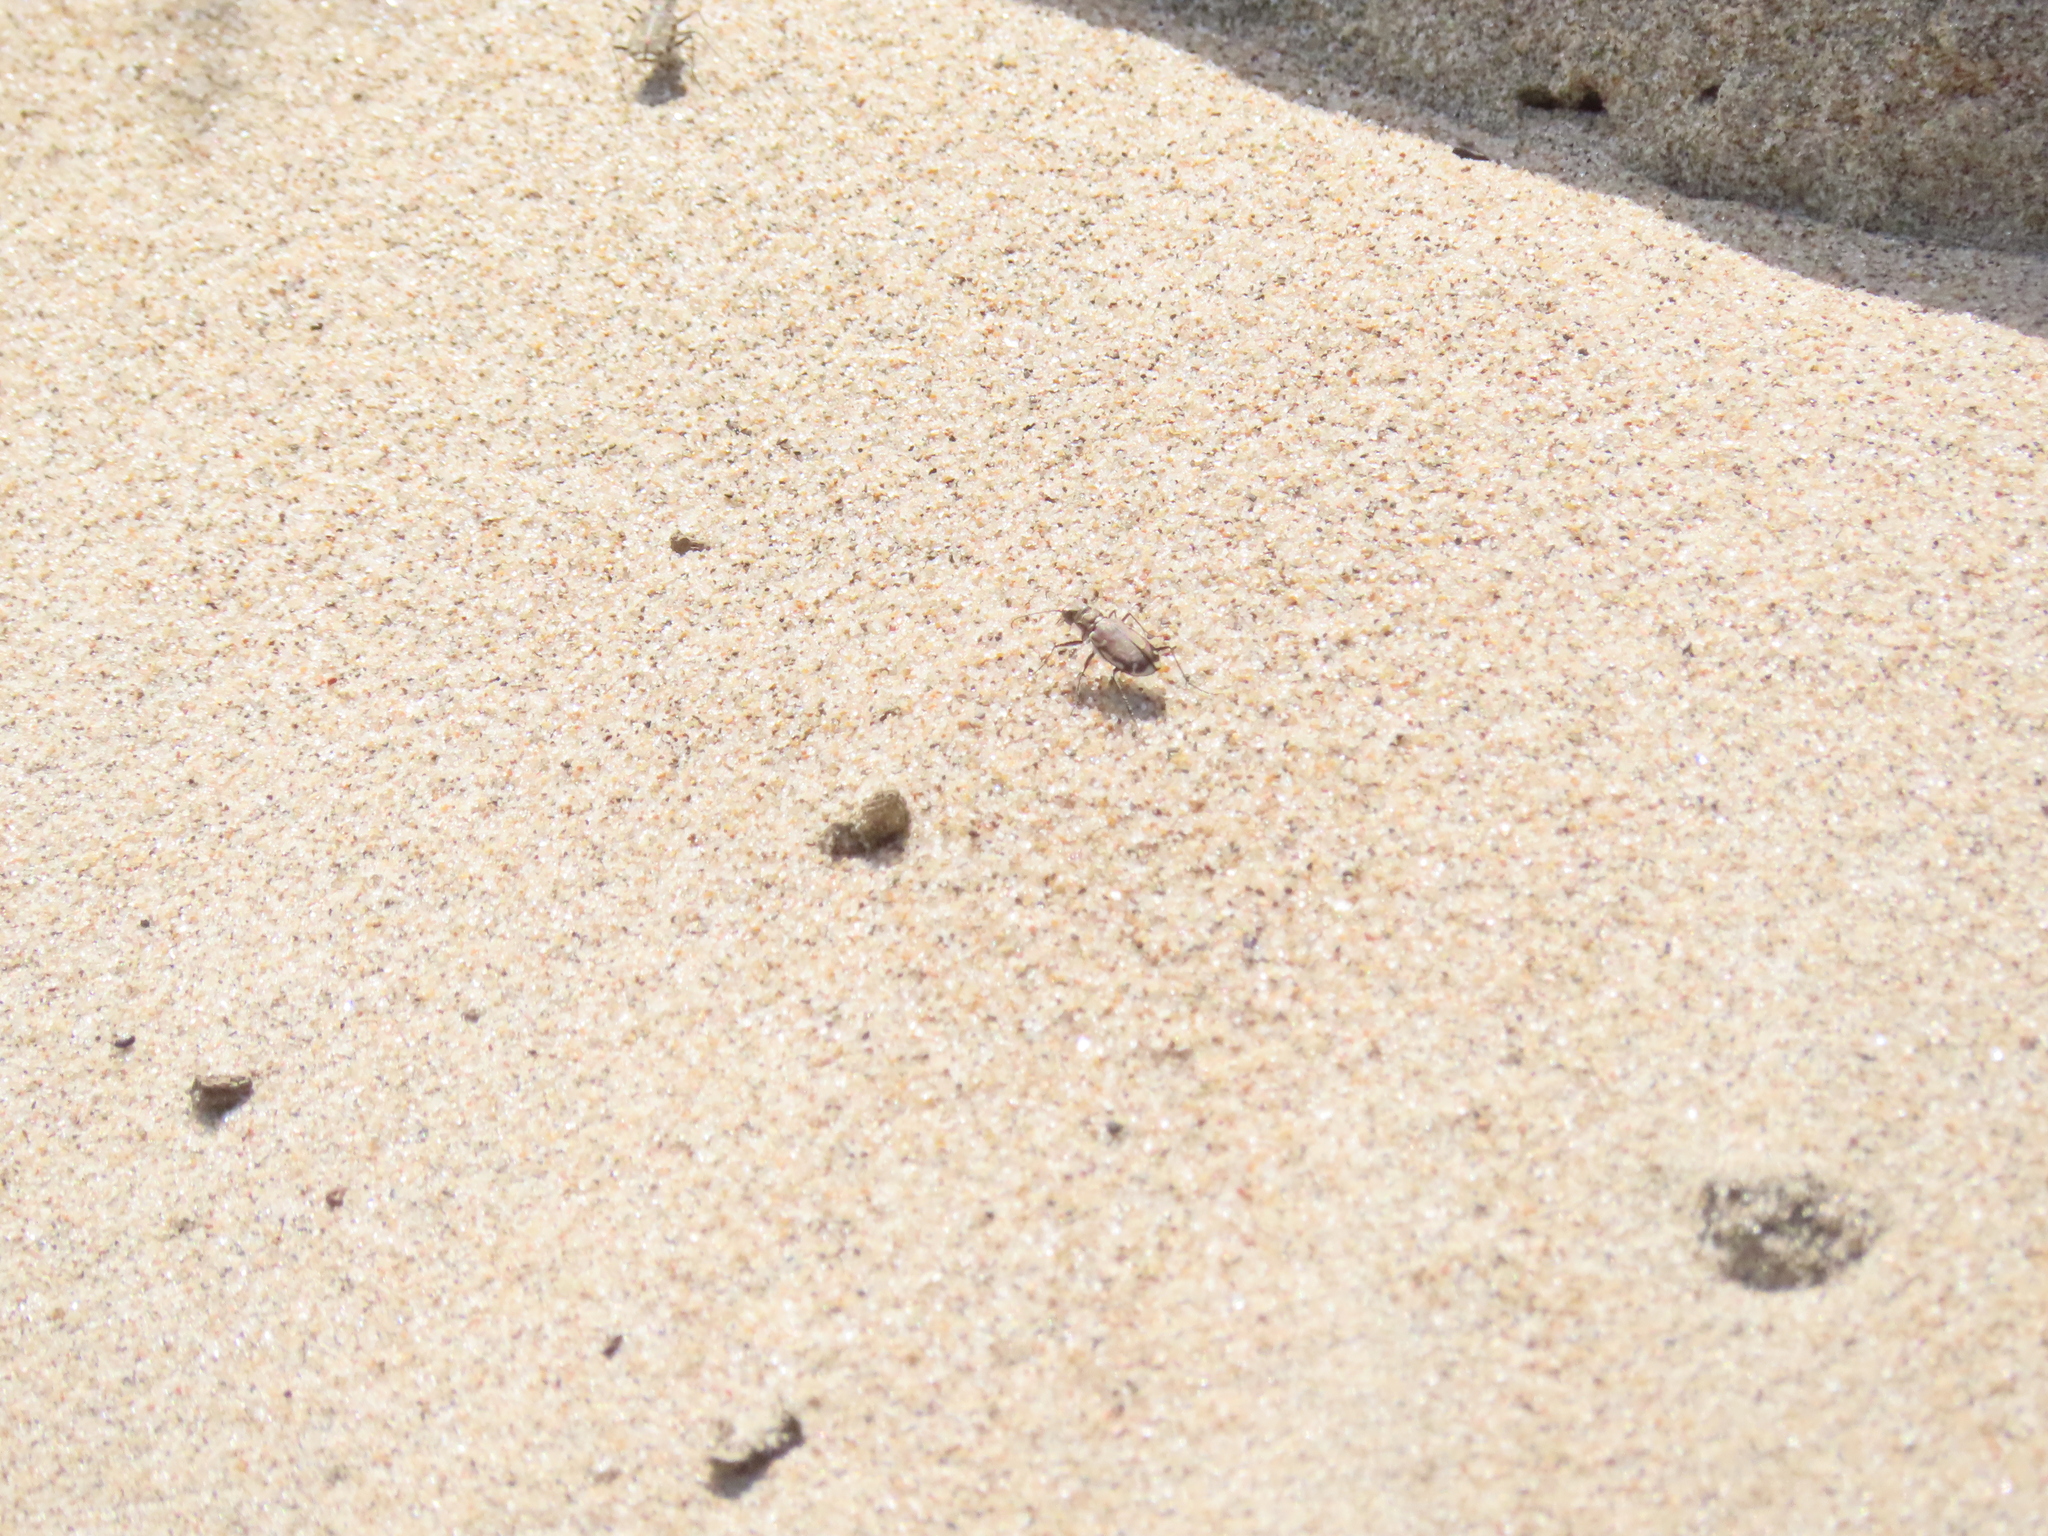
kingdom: Animalia
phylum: Arthropoda
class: Insecta
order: Coleoptera
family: Carabidae
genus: Cicindela
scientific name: Cicindela repanda
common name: Bronzed tiger beetle
